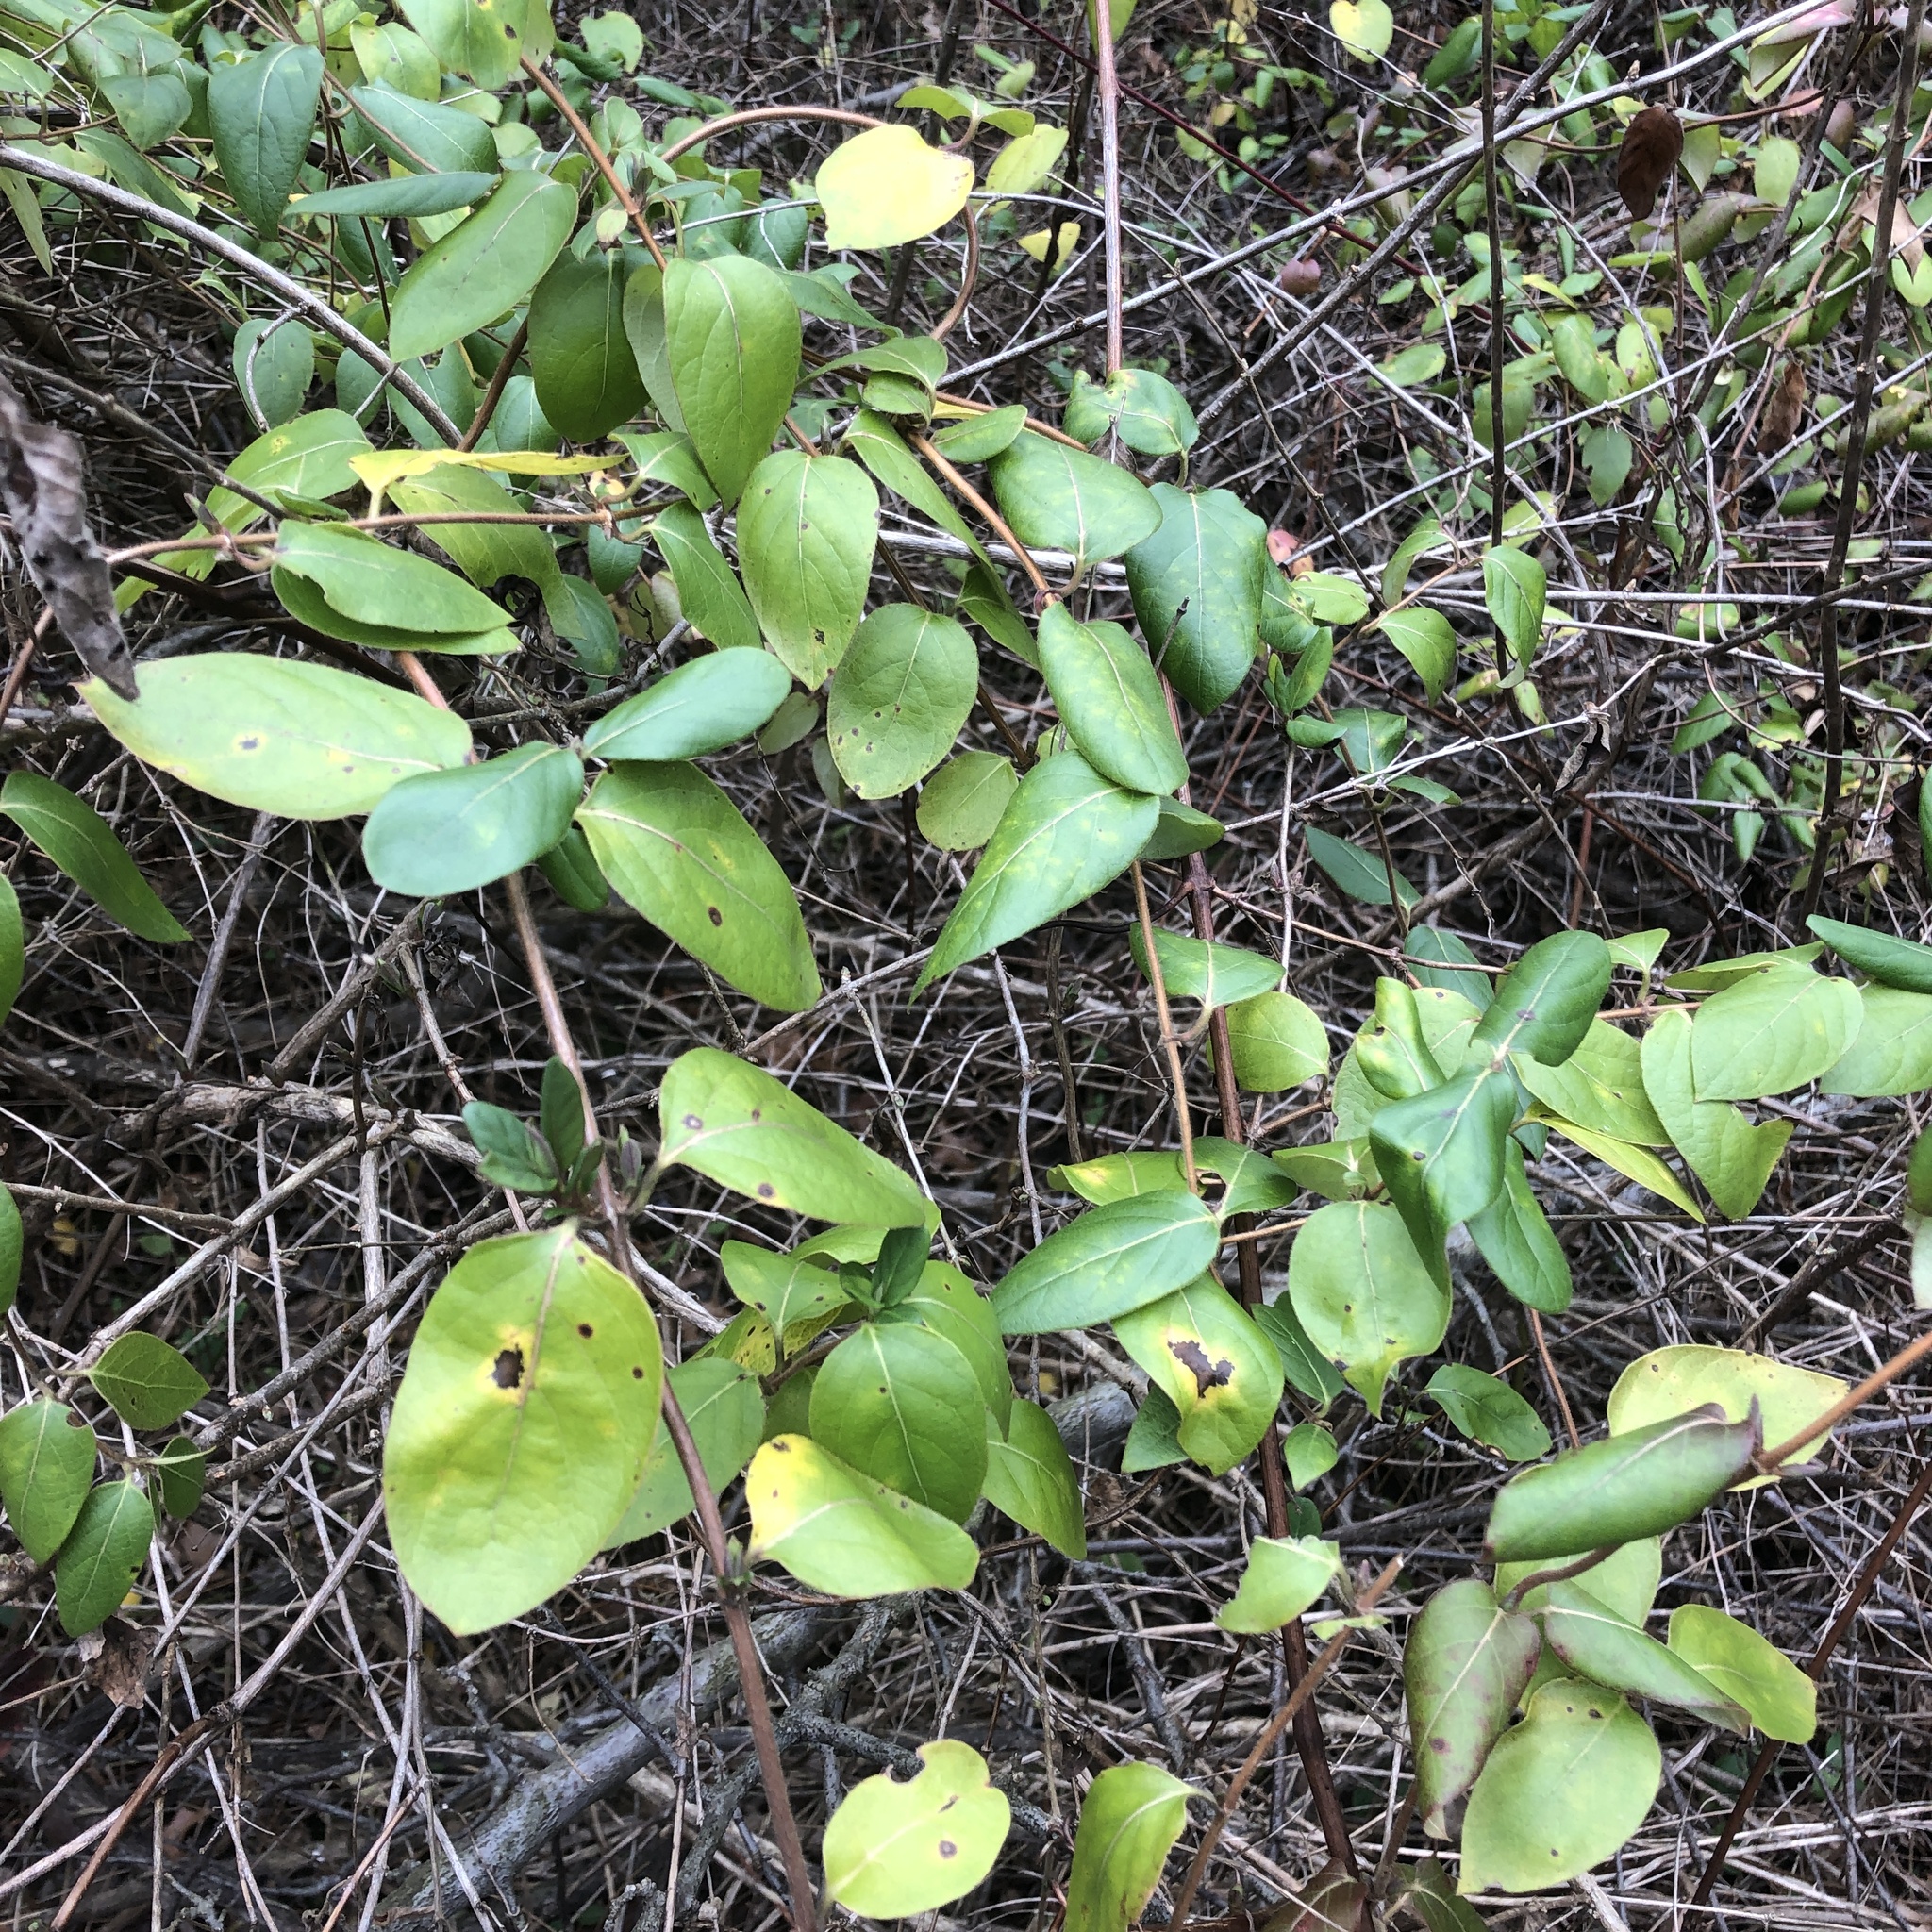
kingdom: Plantae
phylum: Tracheophyta
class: Magnoliopsida
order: Dipsacales
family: Caprifoliaceae
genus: Lonicera
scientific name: Lonicera japonica
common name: Japanese honeysuckle
